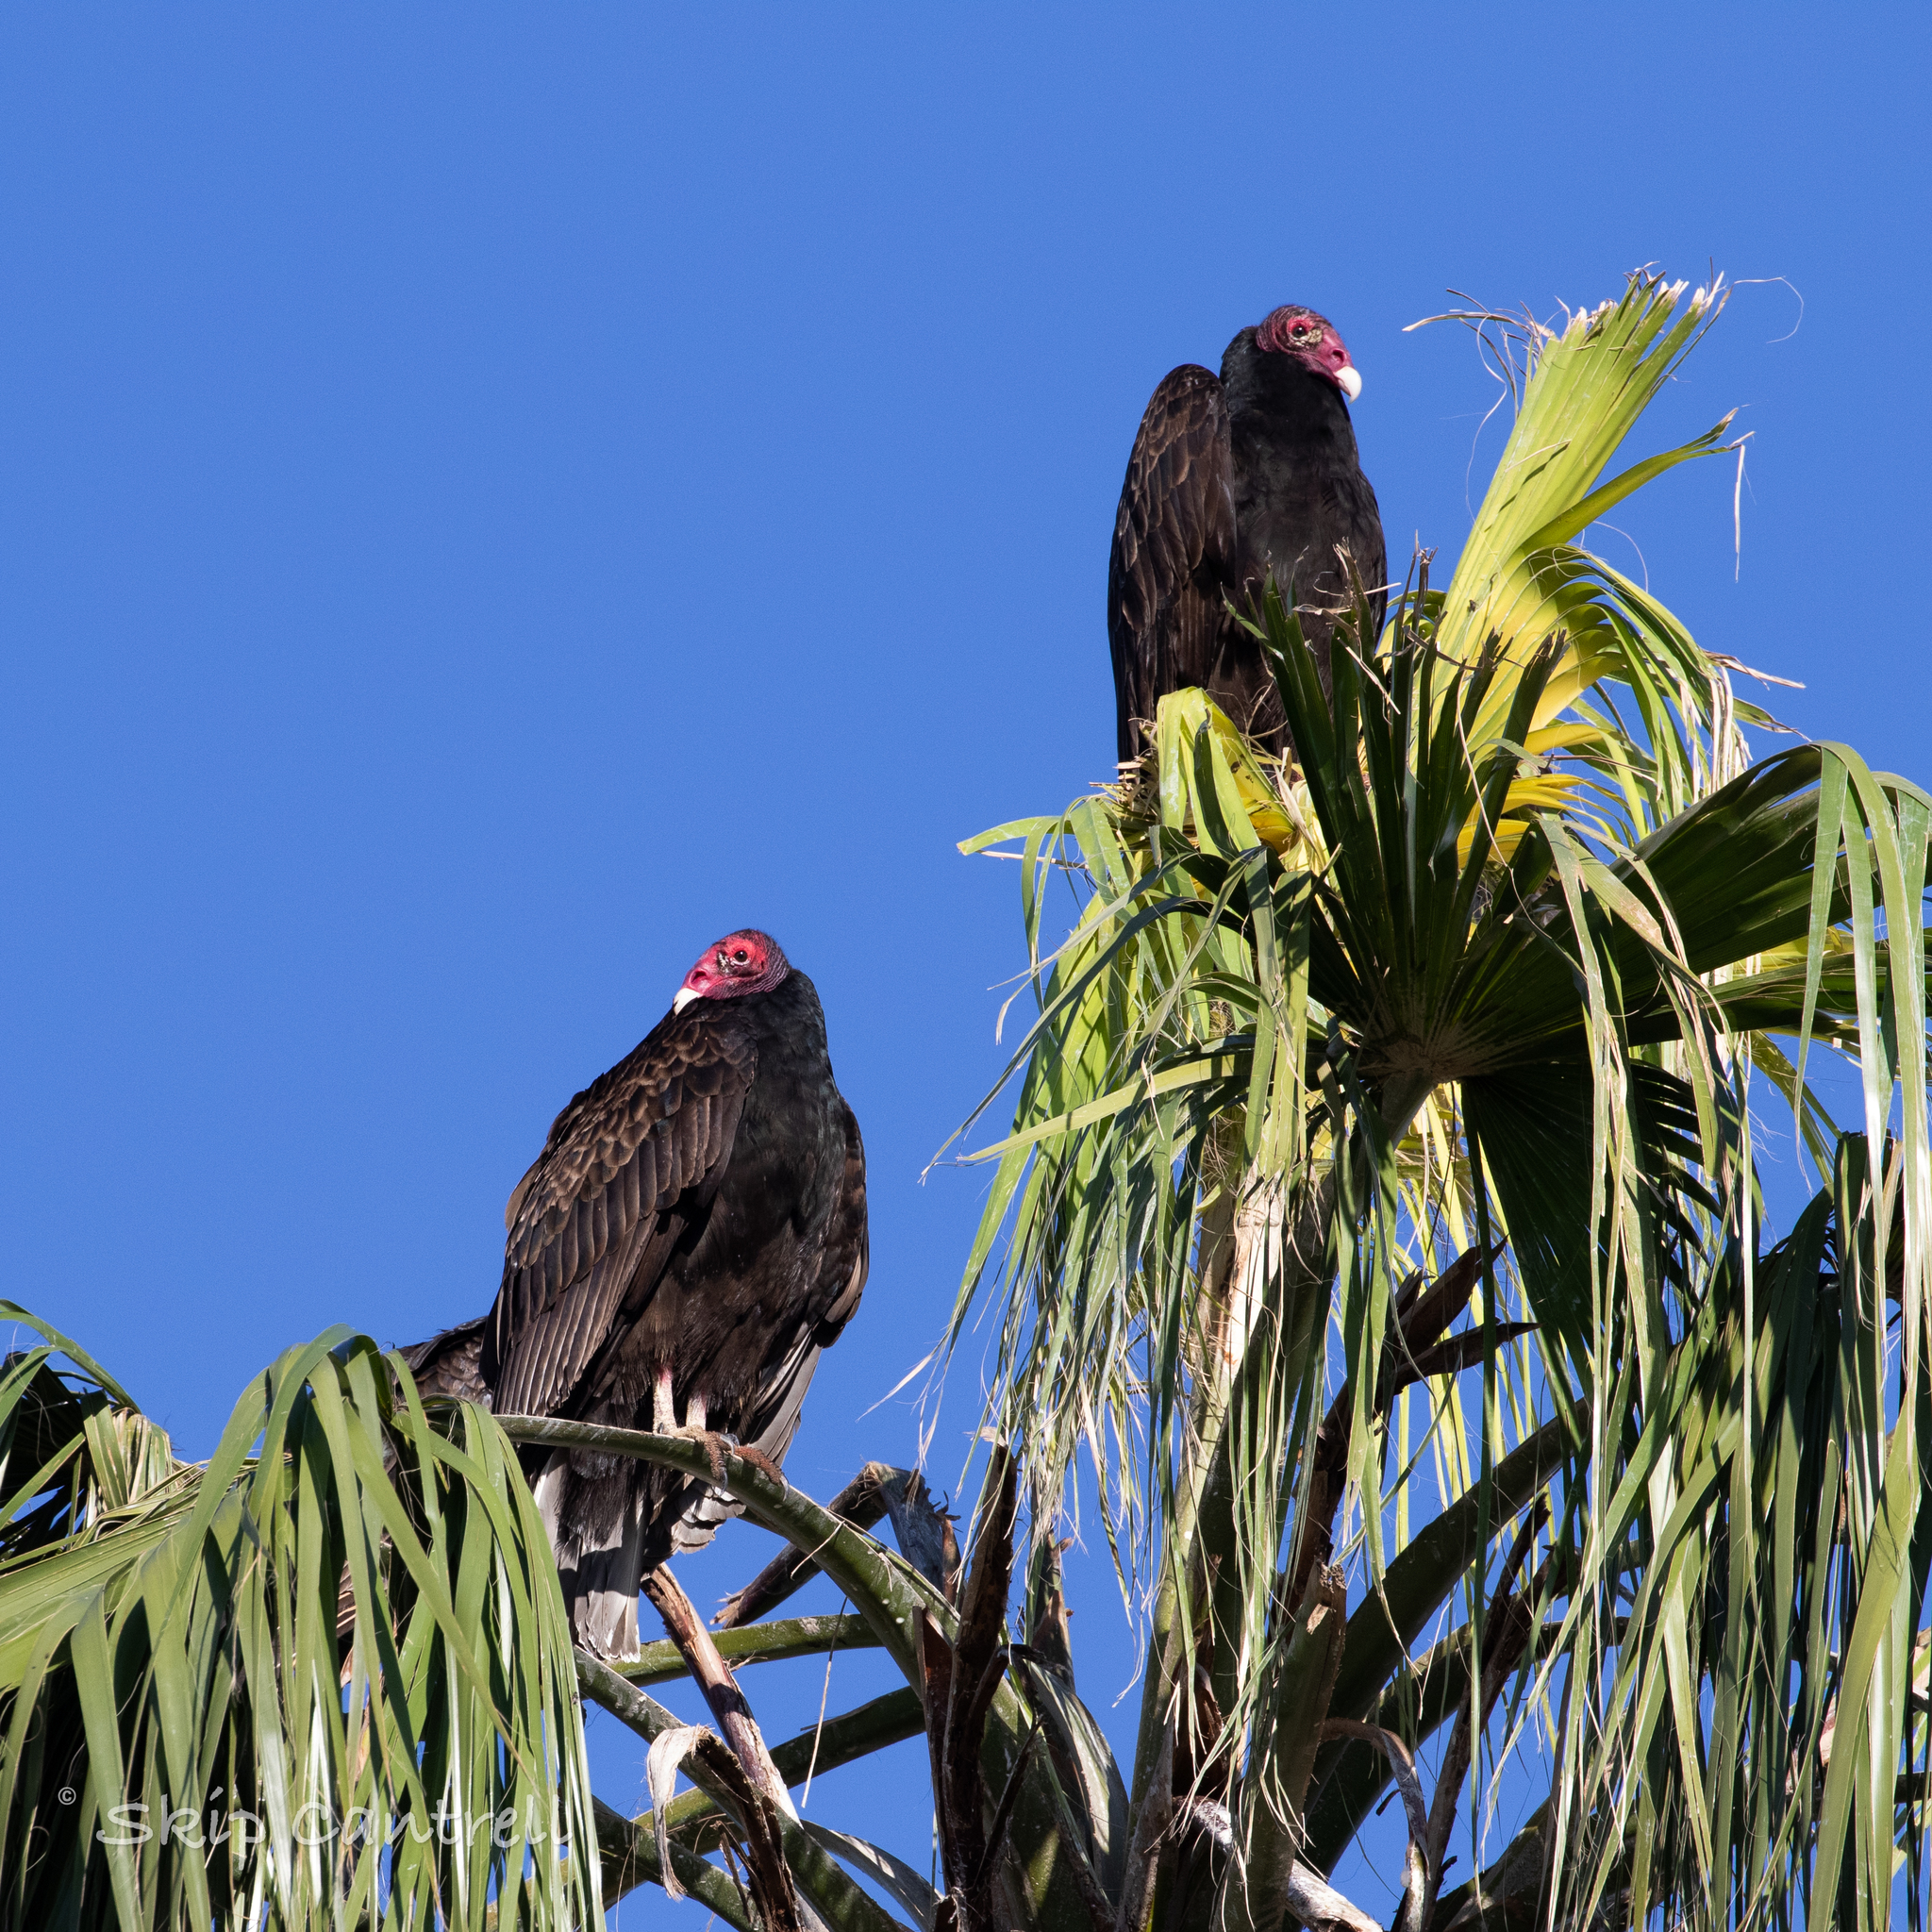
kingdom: Animalia
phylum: Chordata
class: Aves
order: Accipitriformes
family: Cathartidae
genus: Cathartes
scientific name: Cathartes aura
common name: Turkey vulture
